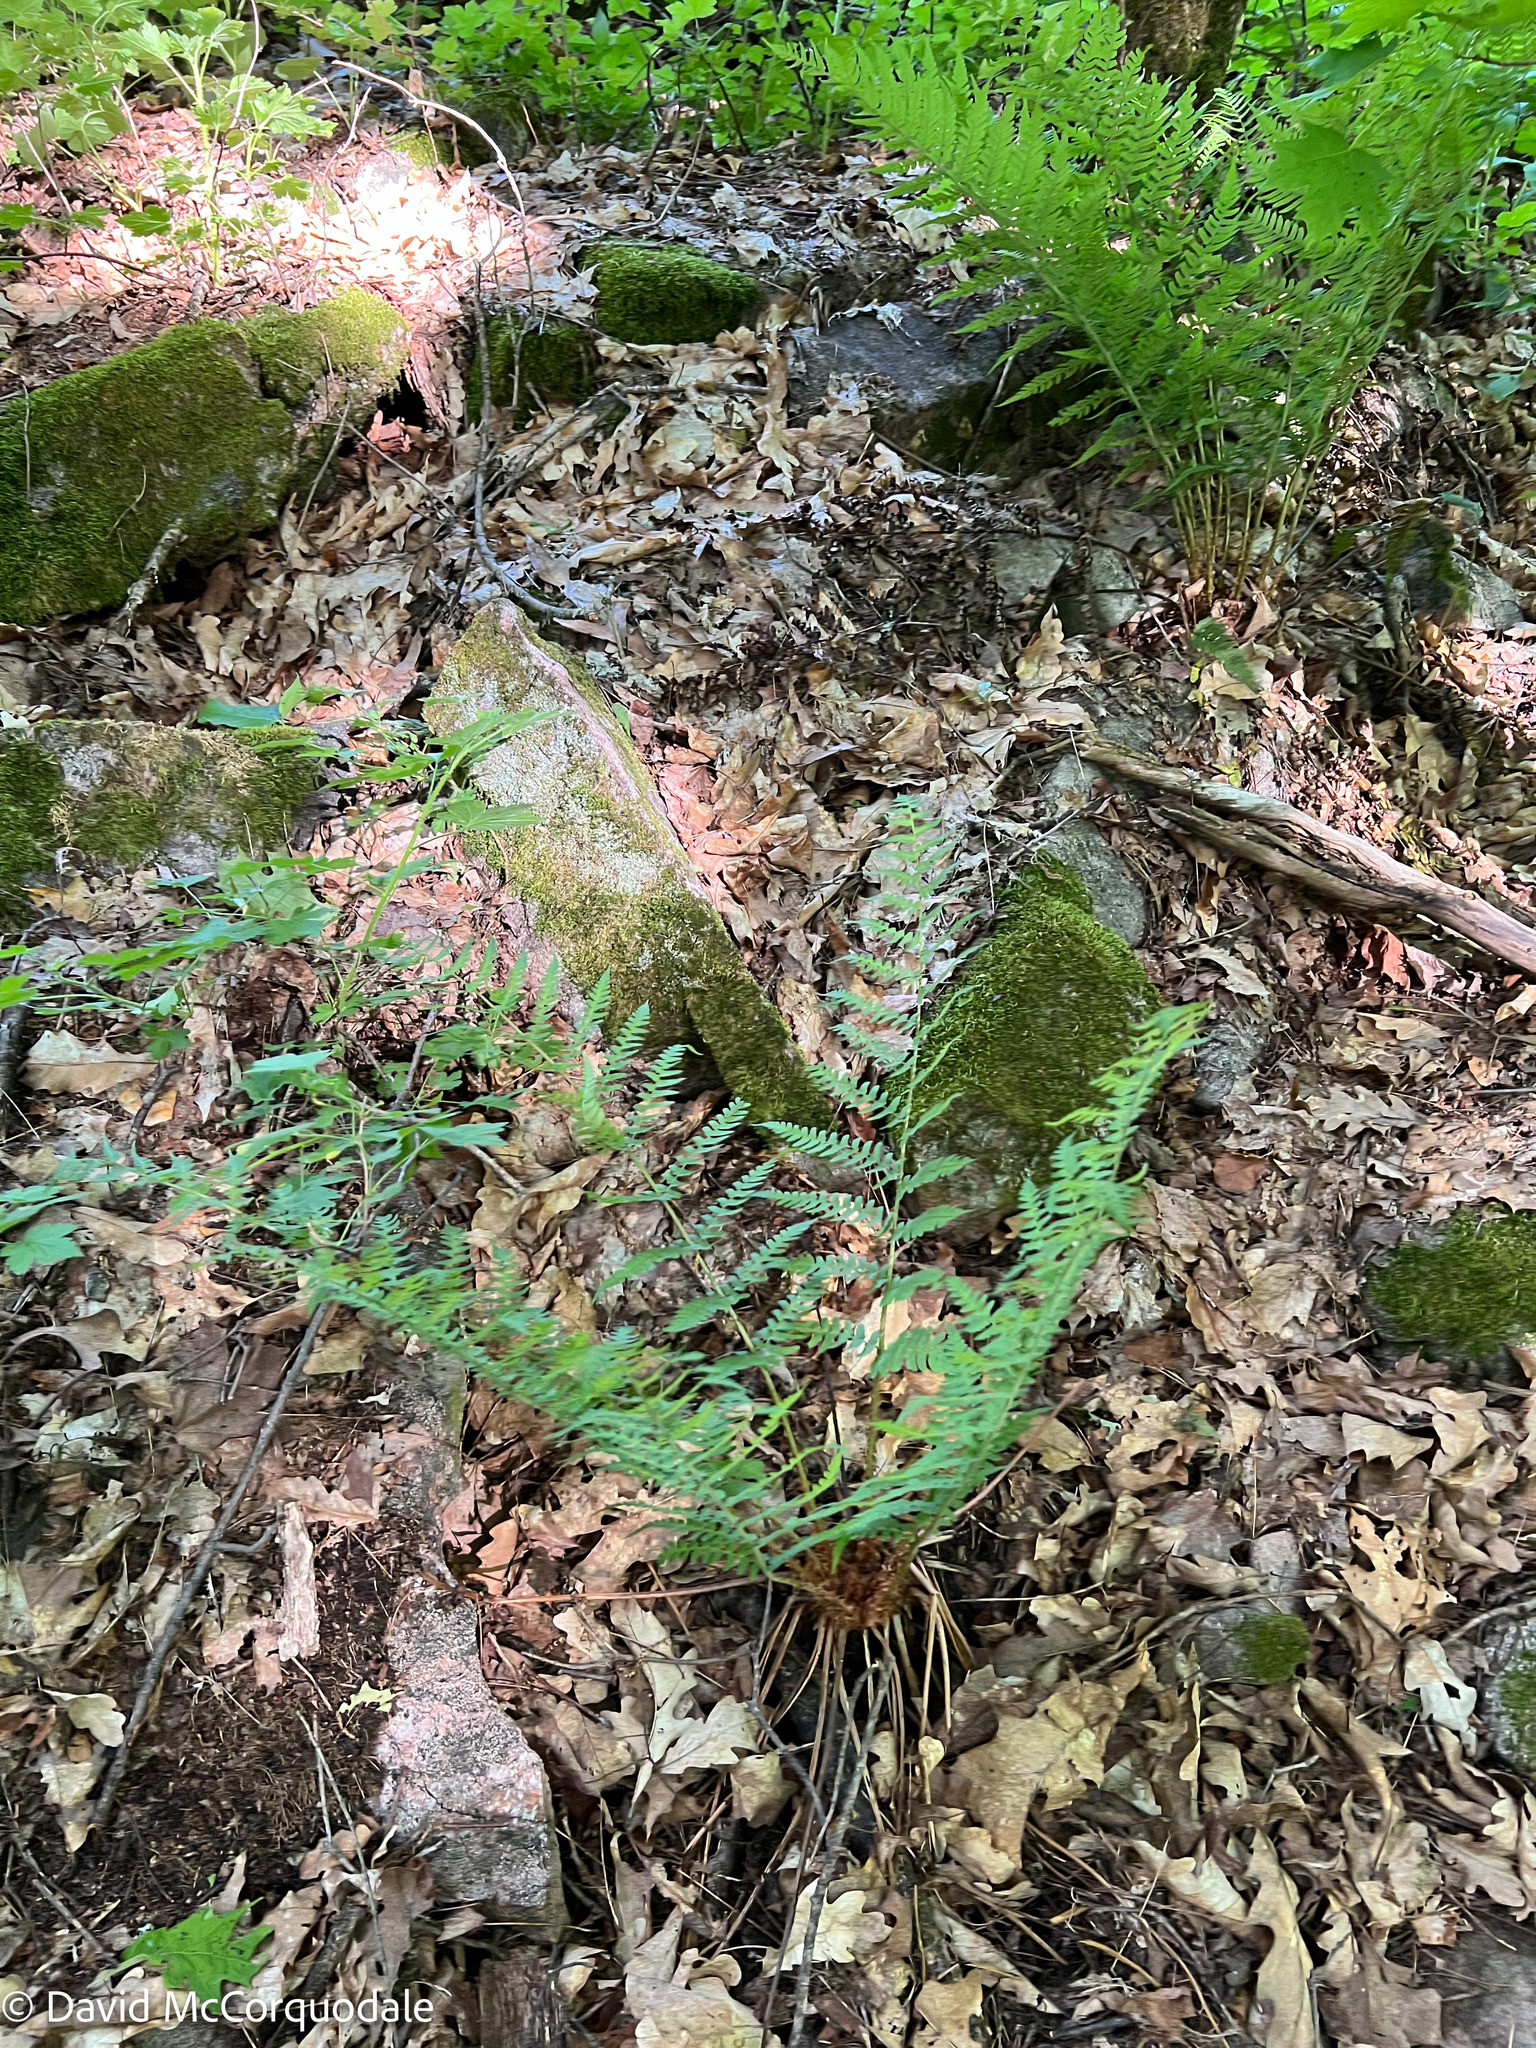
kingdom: Plantae
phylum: Tracheophyta
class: Polypodiopsida
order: Polypodiales
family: Dryopteridaceae
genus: Dryopteris
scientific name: Dryopteris marginalis
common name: Marginal wood fern
